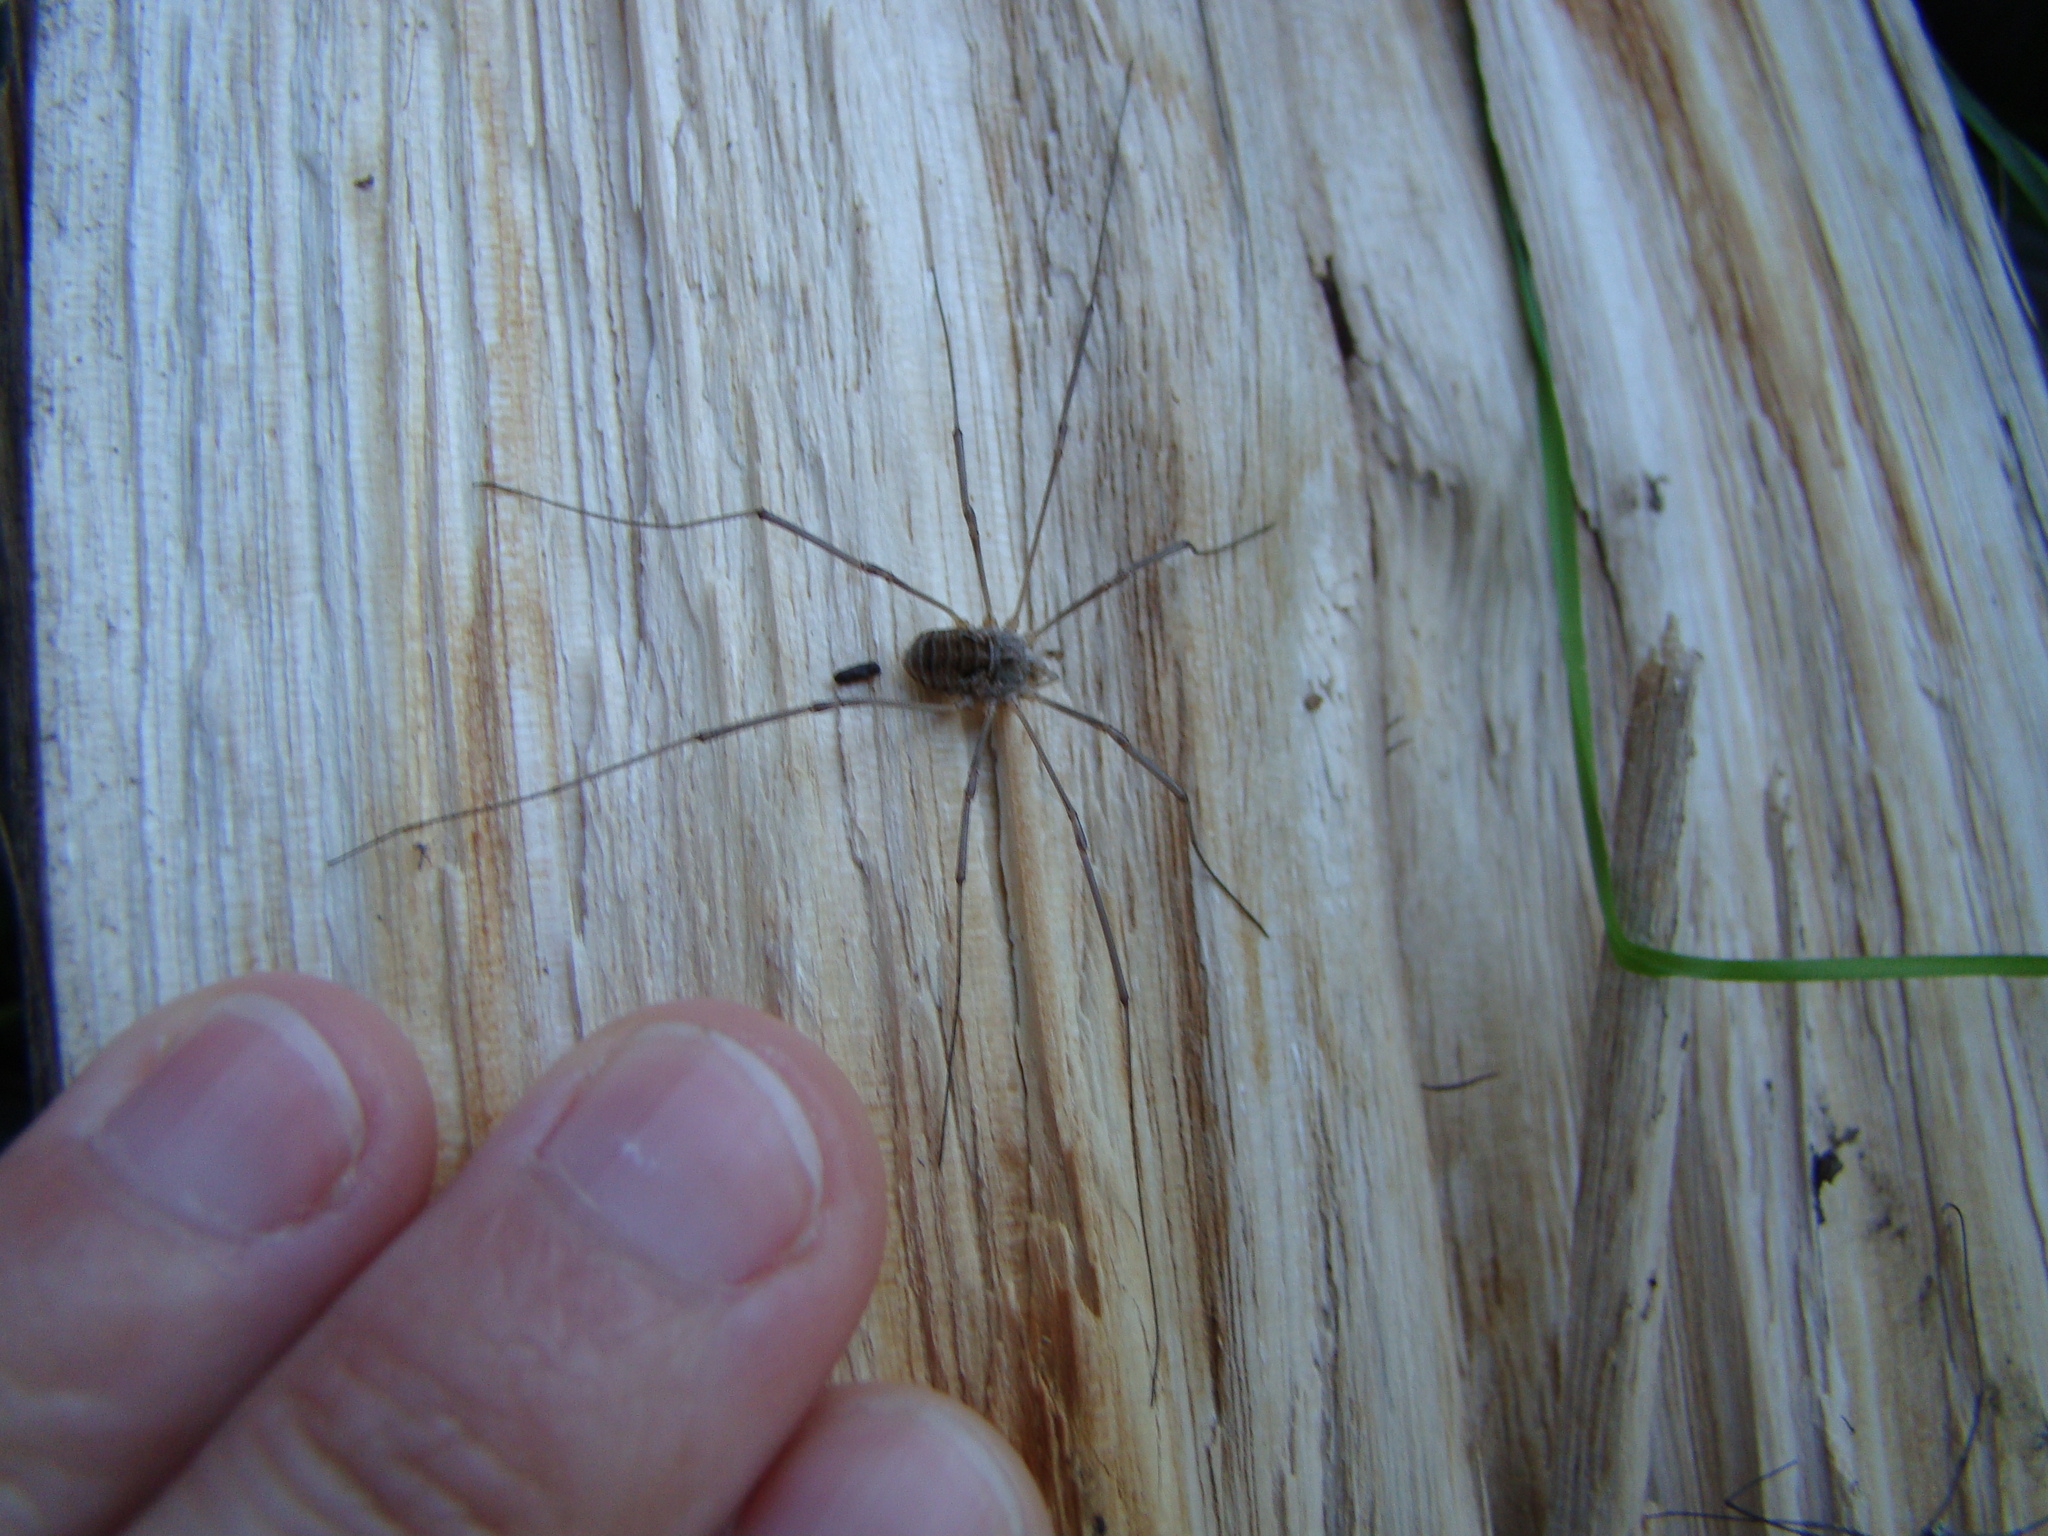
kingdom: Animalia
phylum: Arthropoda
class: Arachnida
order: Opiliones
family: Phalangiidae
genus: Phalangium
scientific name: Phalangium opilio
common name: Daddy longleg
